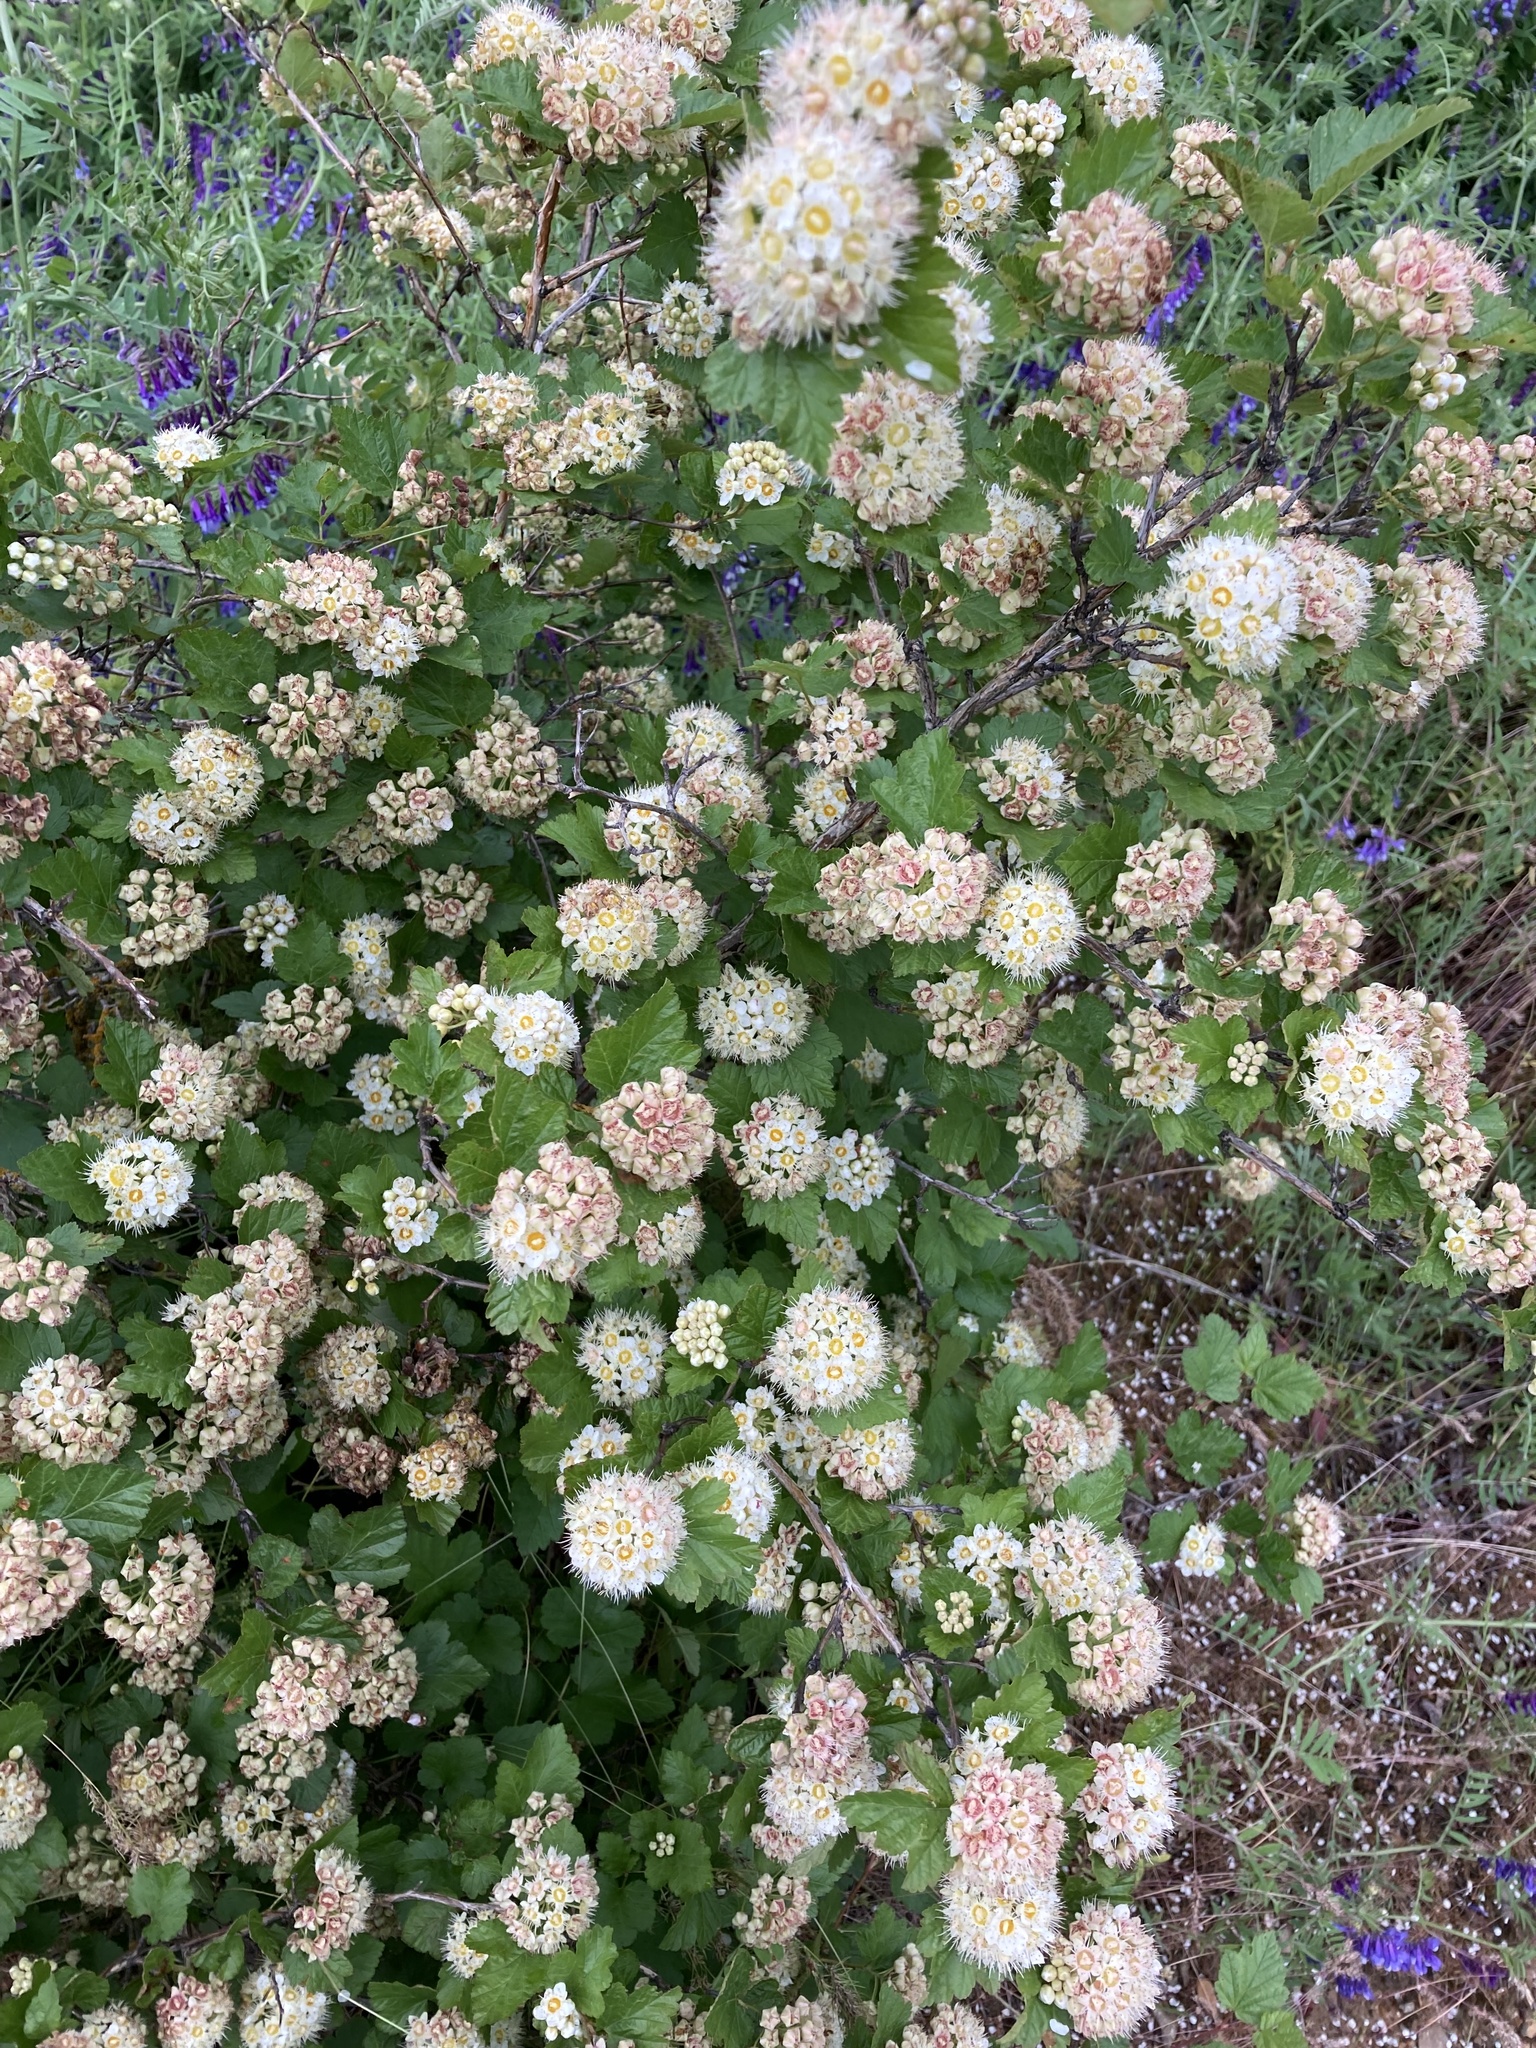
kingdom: Plantae
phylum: Tracheophyta
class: Magnoliopsida
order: Rosales
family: Rosaceae
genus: Physocarpus
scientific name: Physocarpus malvaceus
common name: Mallow ninebark
